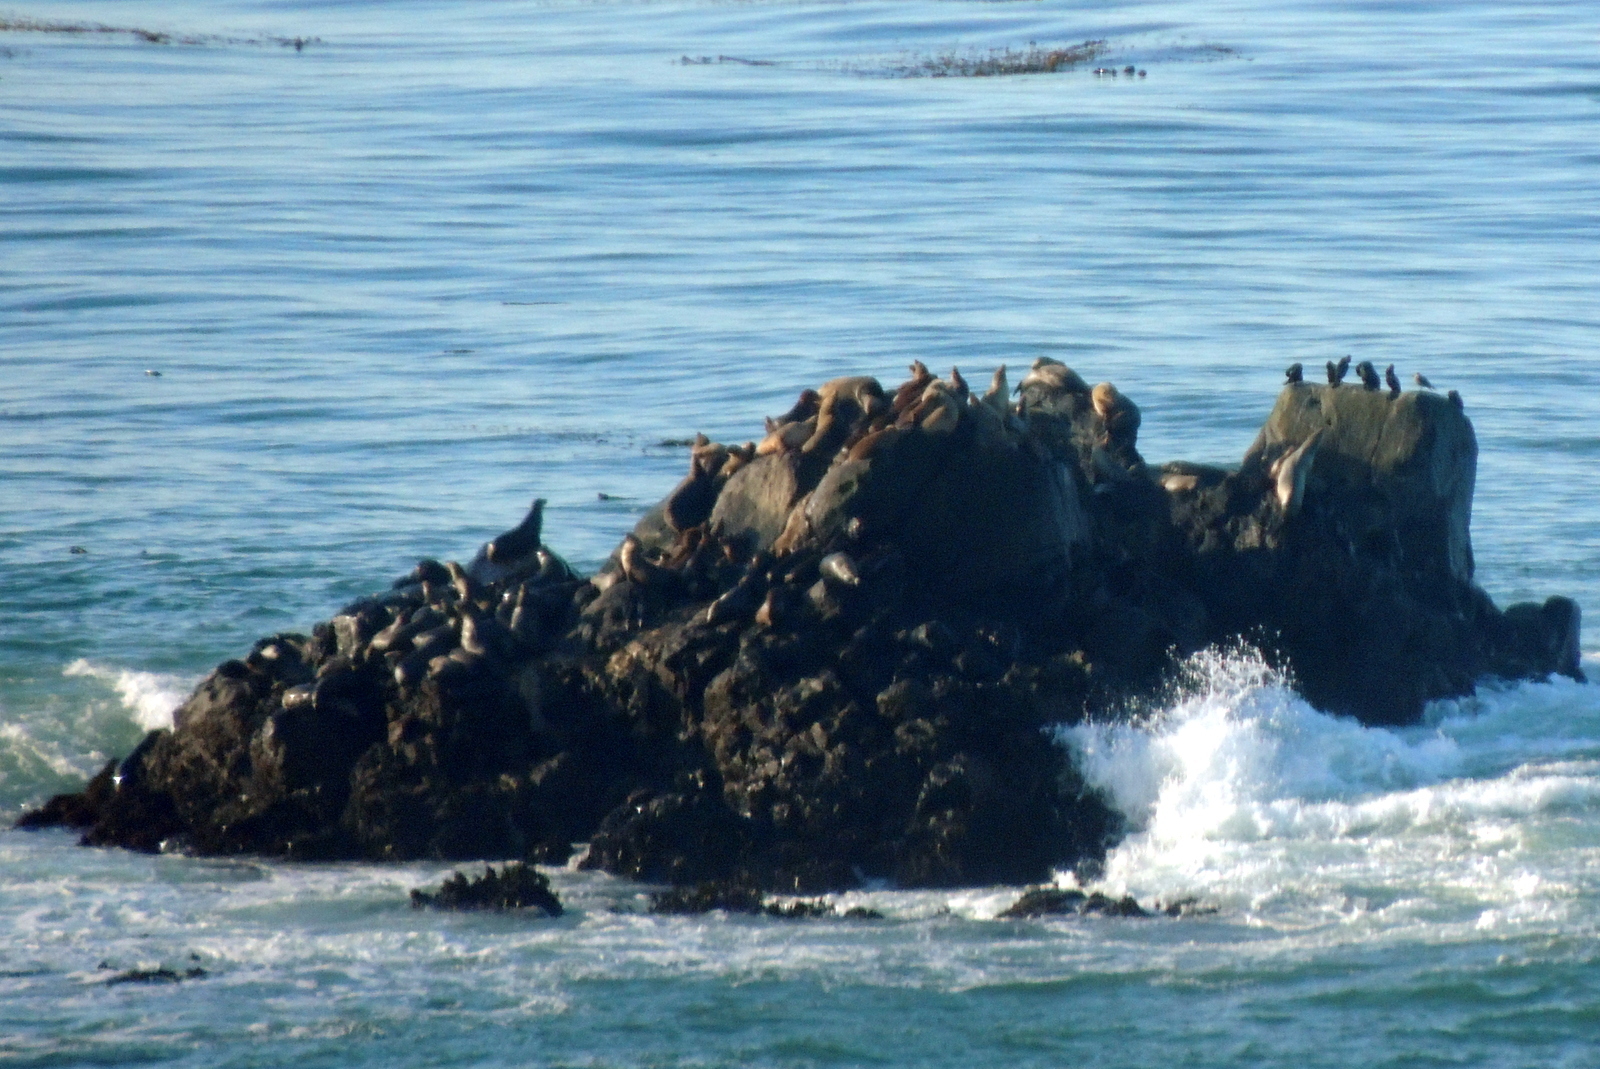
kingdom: Animalia
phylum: Chordata
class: Mammalia
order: Carnivora
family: Otariidae
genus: Zalophus
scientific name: Zalophus californianus
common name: California sea lion
